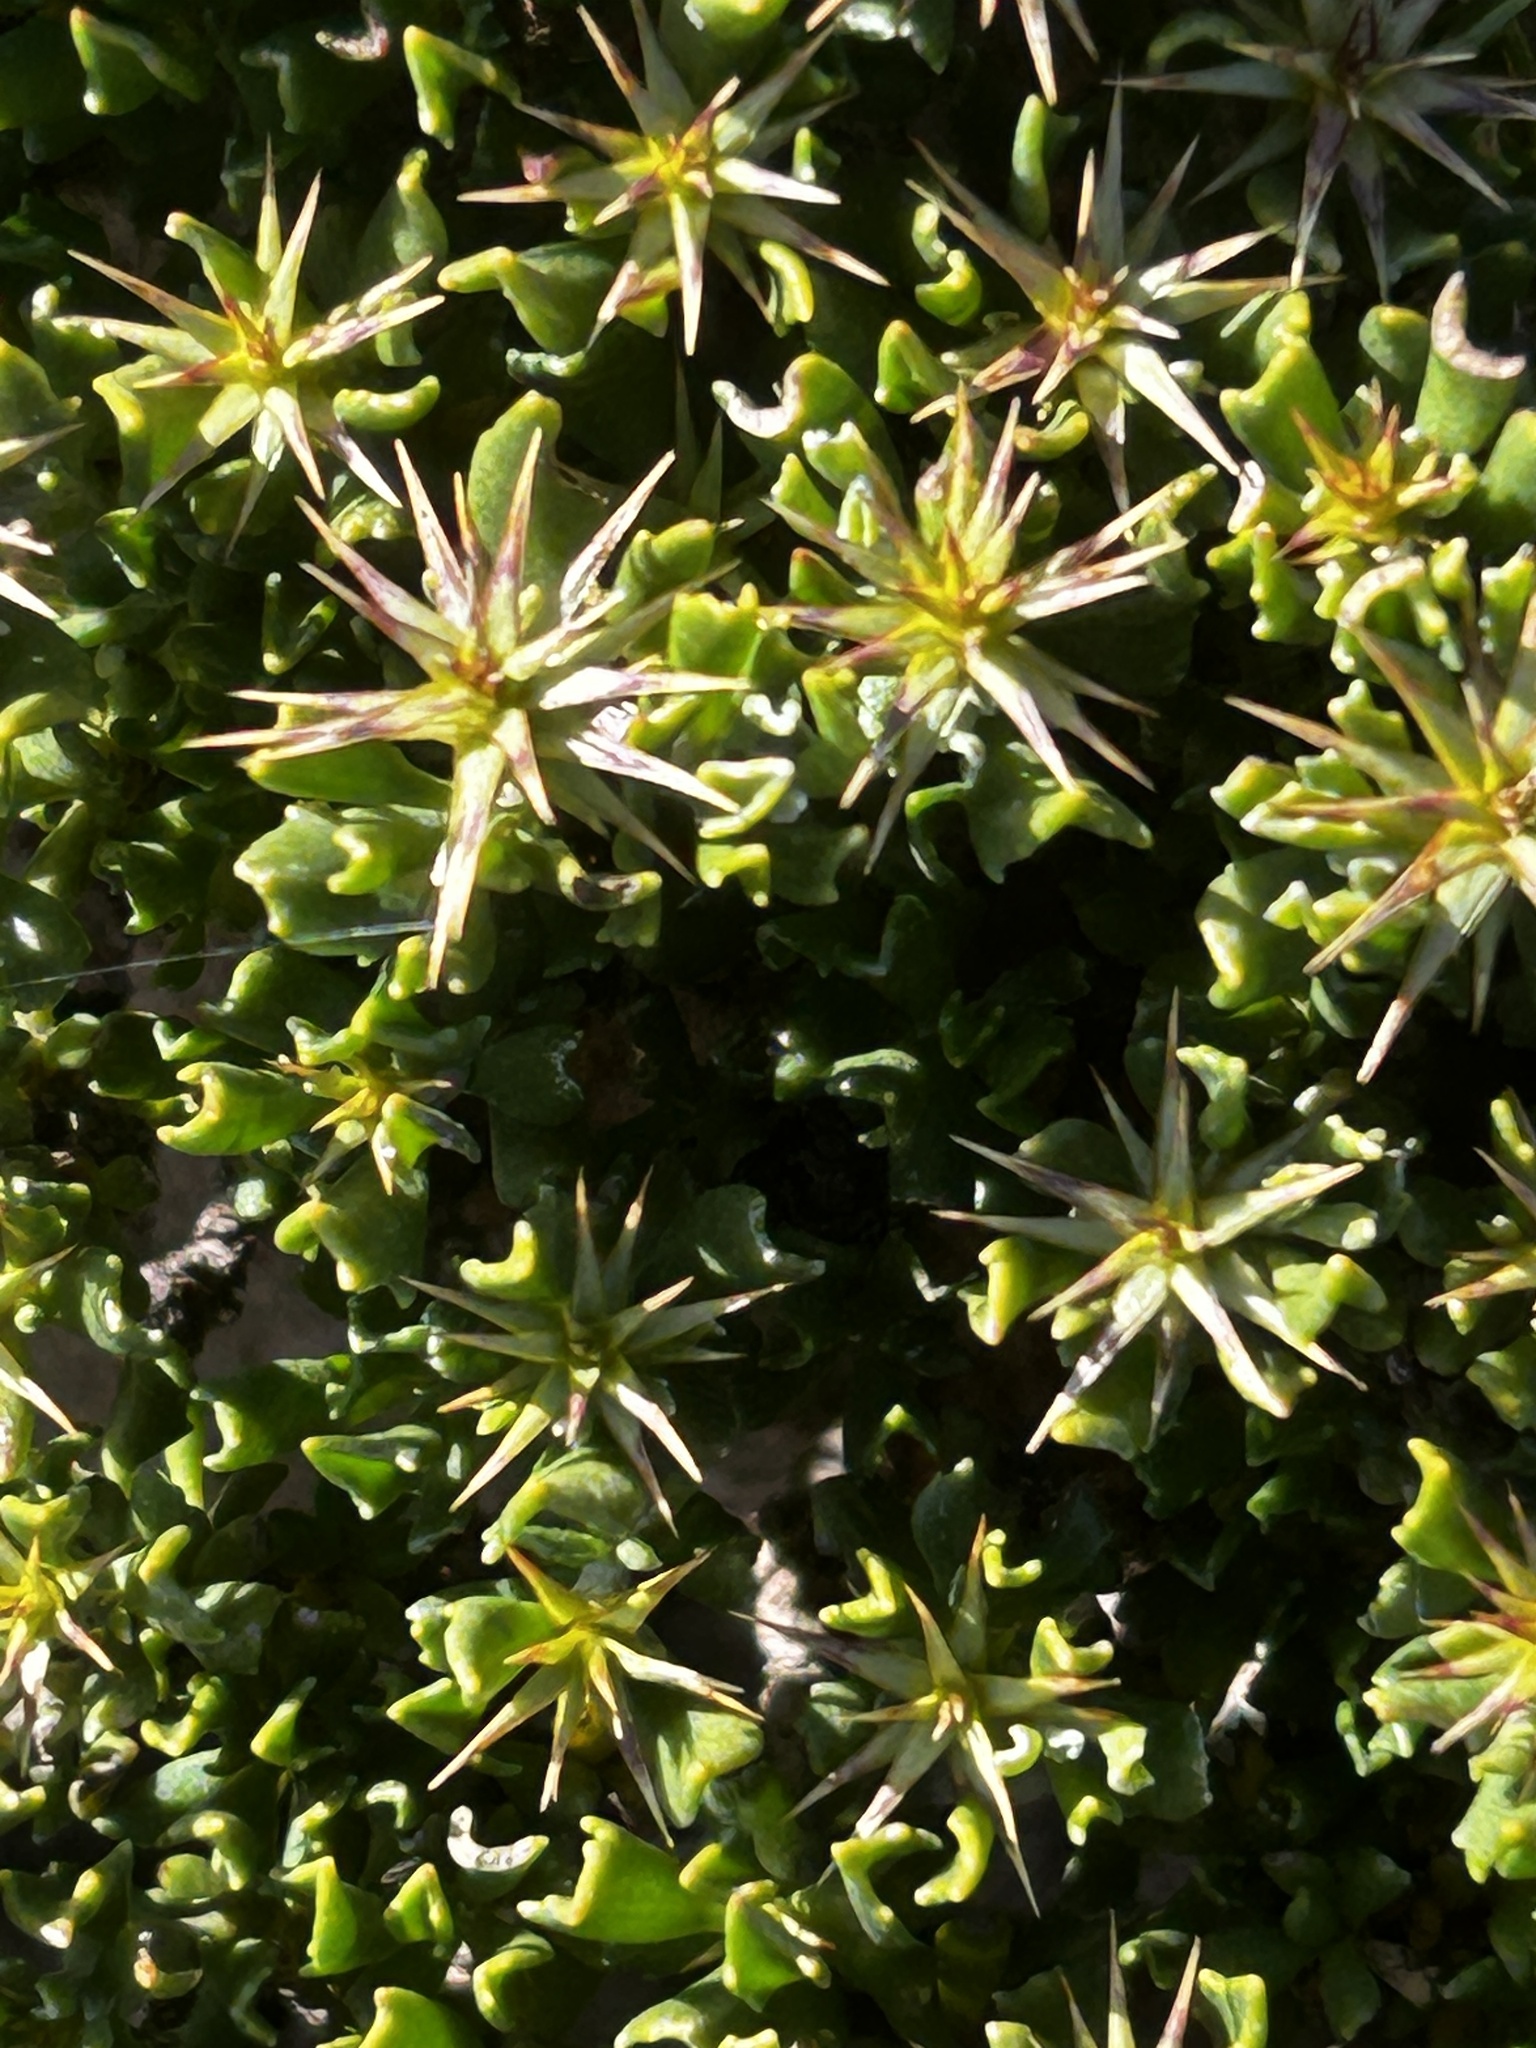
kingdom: Plantae
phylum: Tracheophyta
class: Magnoliopsida
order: Asterales
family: Asteraceae
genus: Macledium
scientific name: Macledium spinosum
